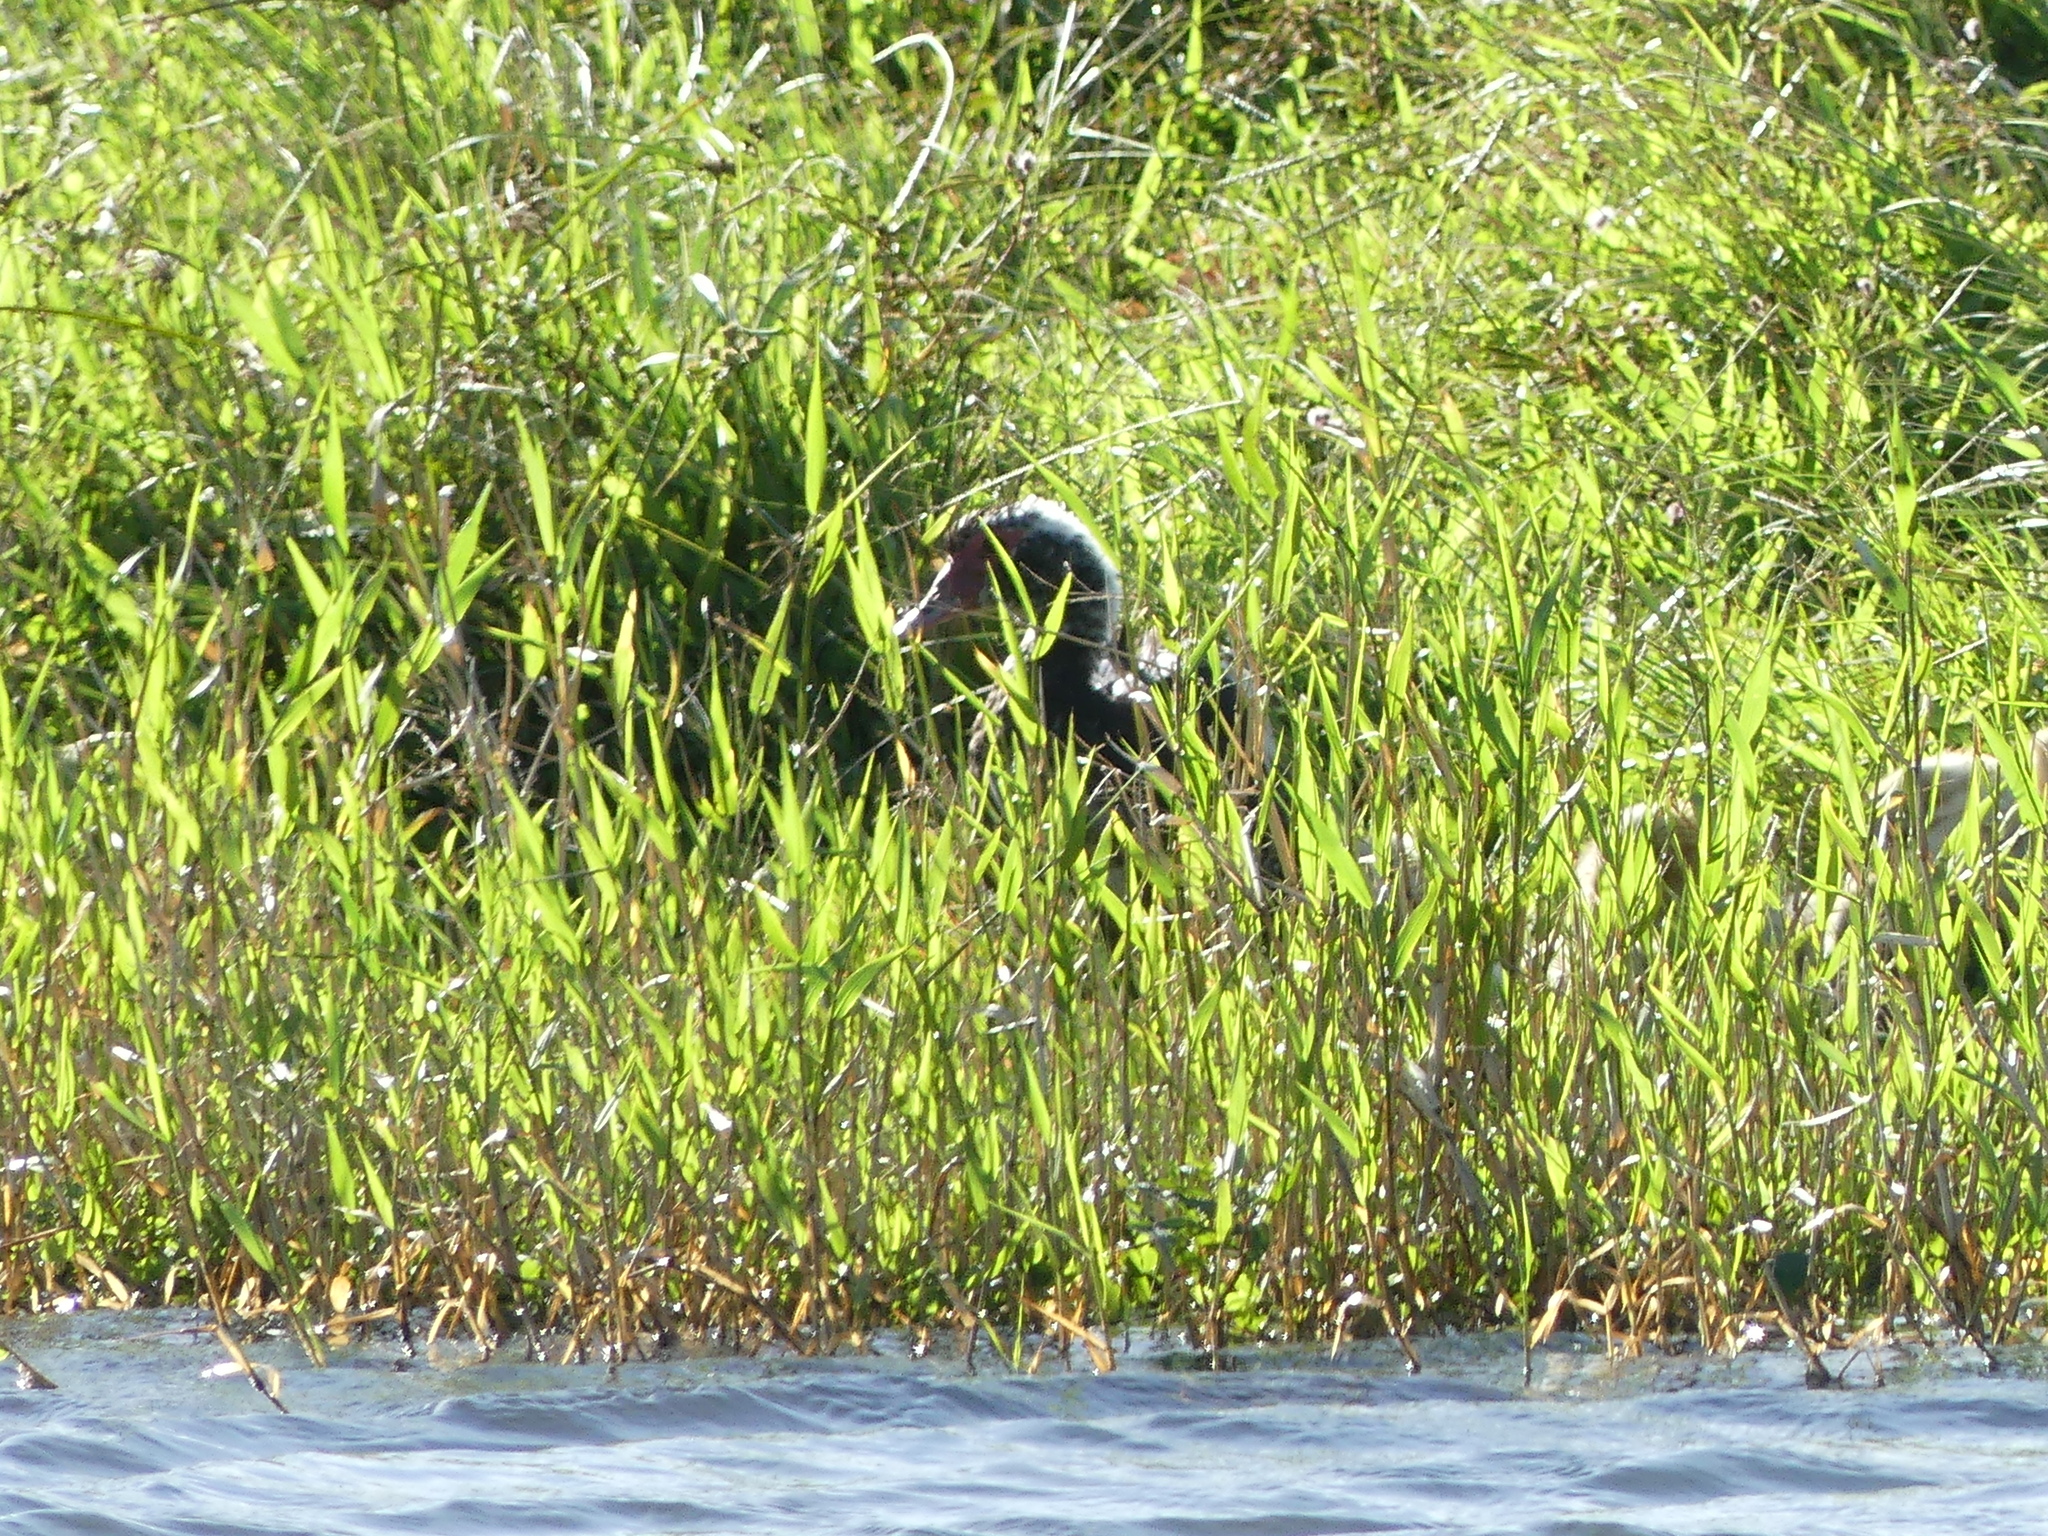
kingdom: Animalia
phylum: Chordata
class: Aves
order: Anseriformes
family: Anatidae
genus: Cairina
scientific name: Cairina moschata
